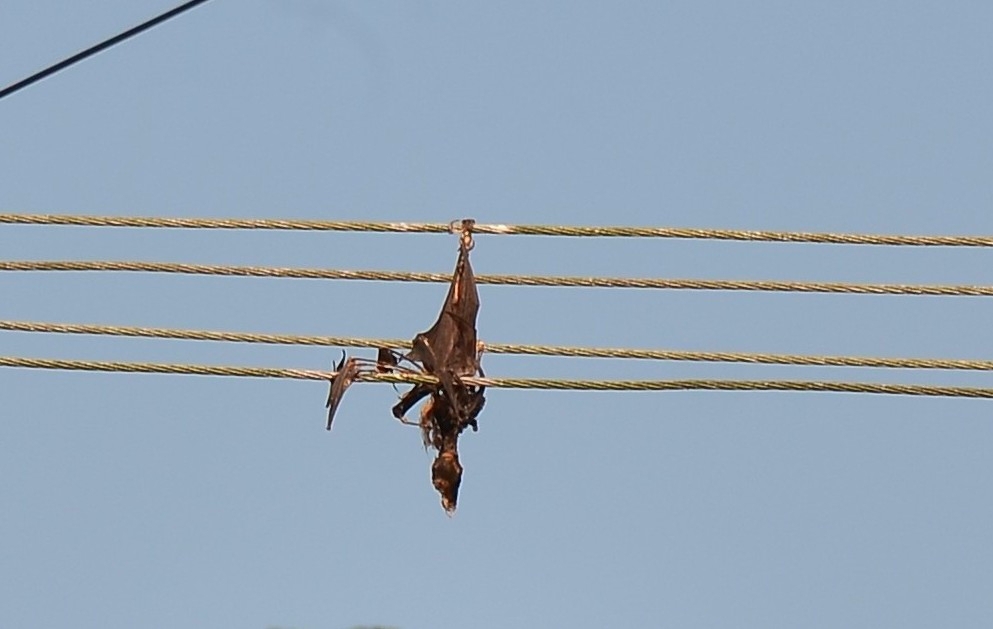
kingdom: Animalia
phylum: Chordata
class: Mammalia
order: Chiroptera
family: Pteropodidae
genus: Pteropus
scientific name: Pteropus vampyrus
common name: Large flying fox
